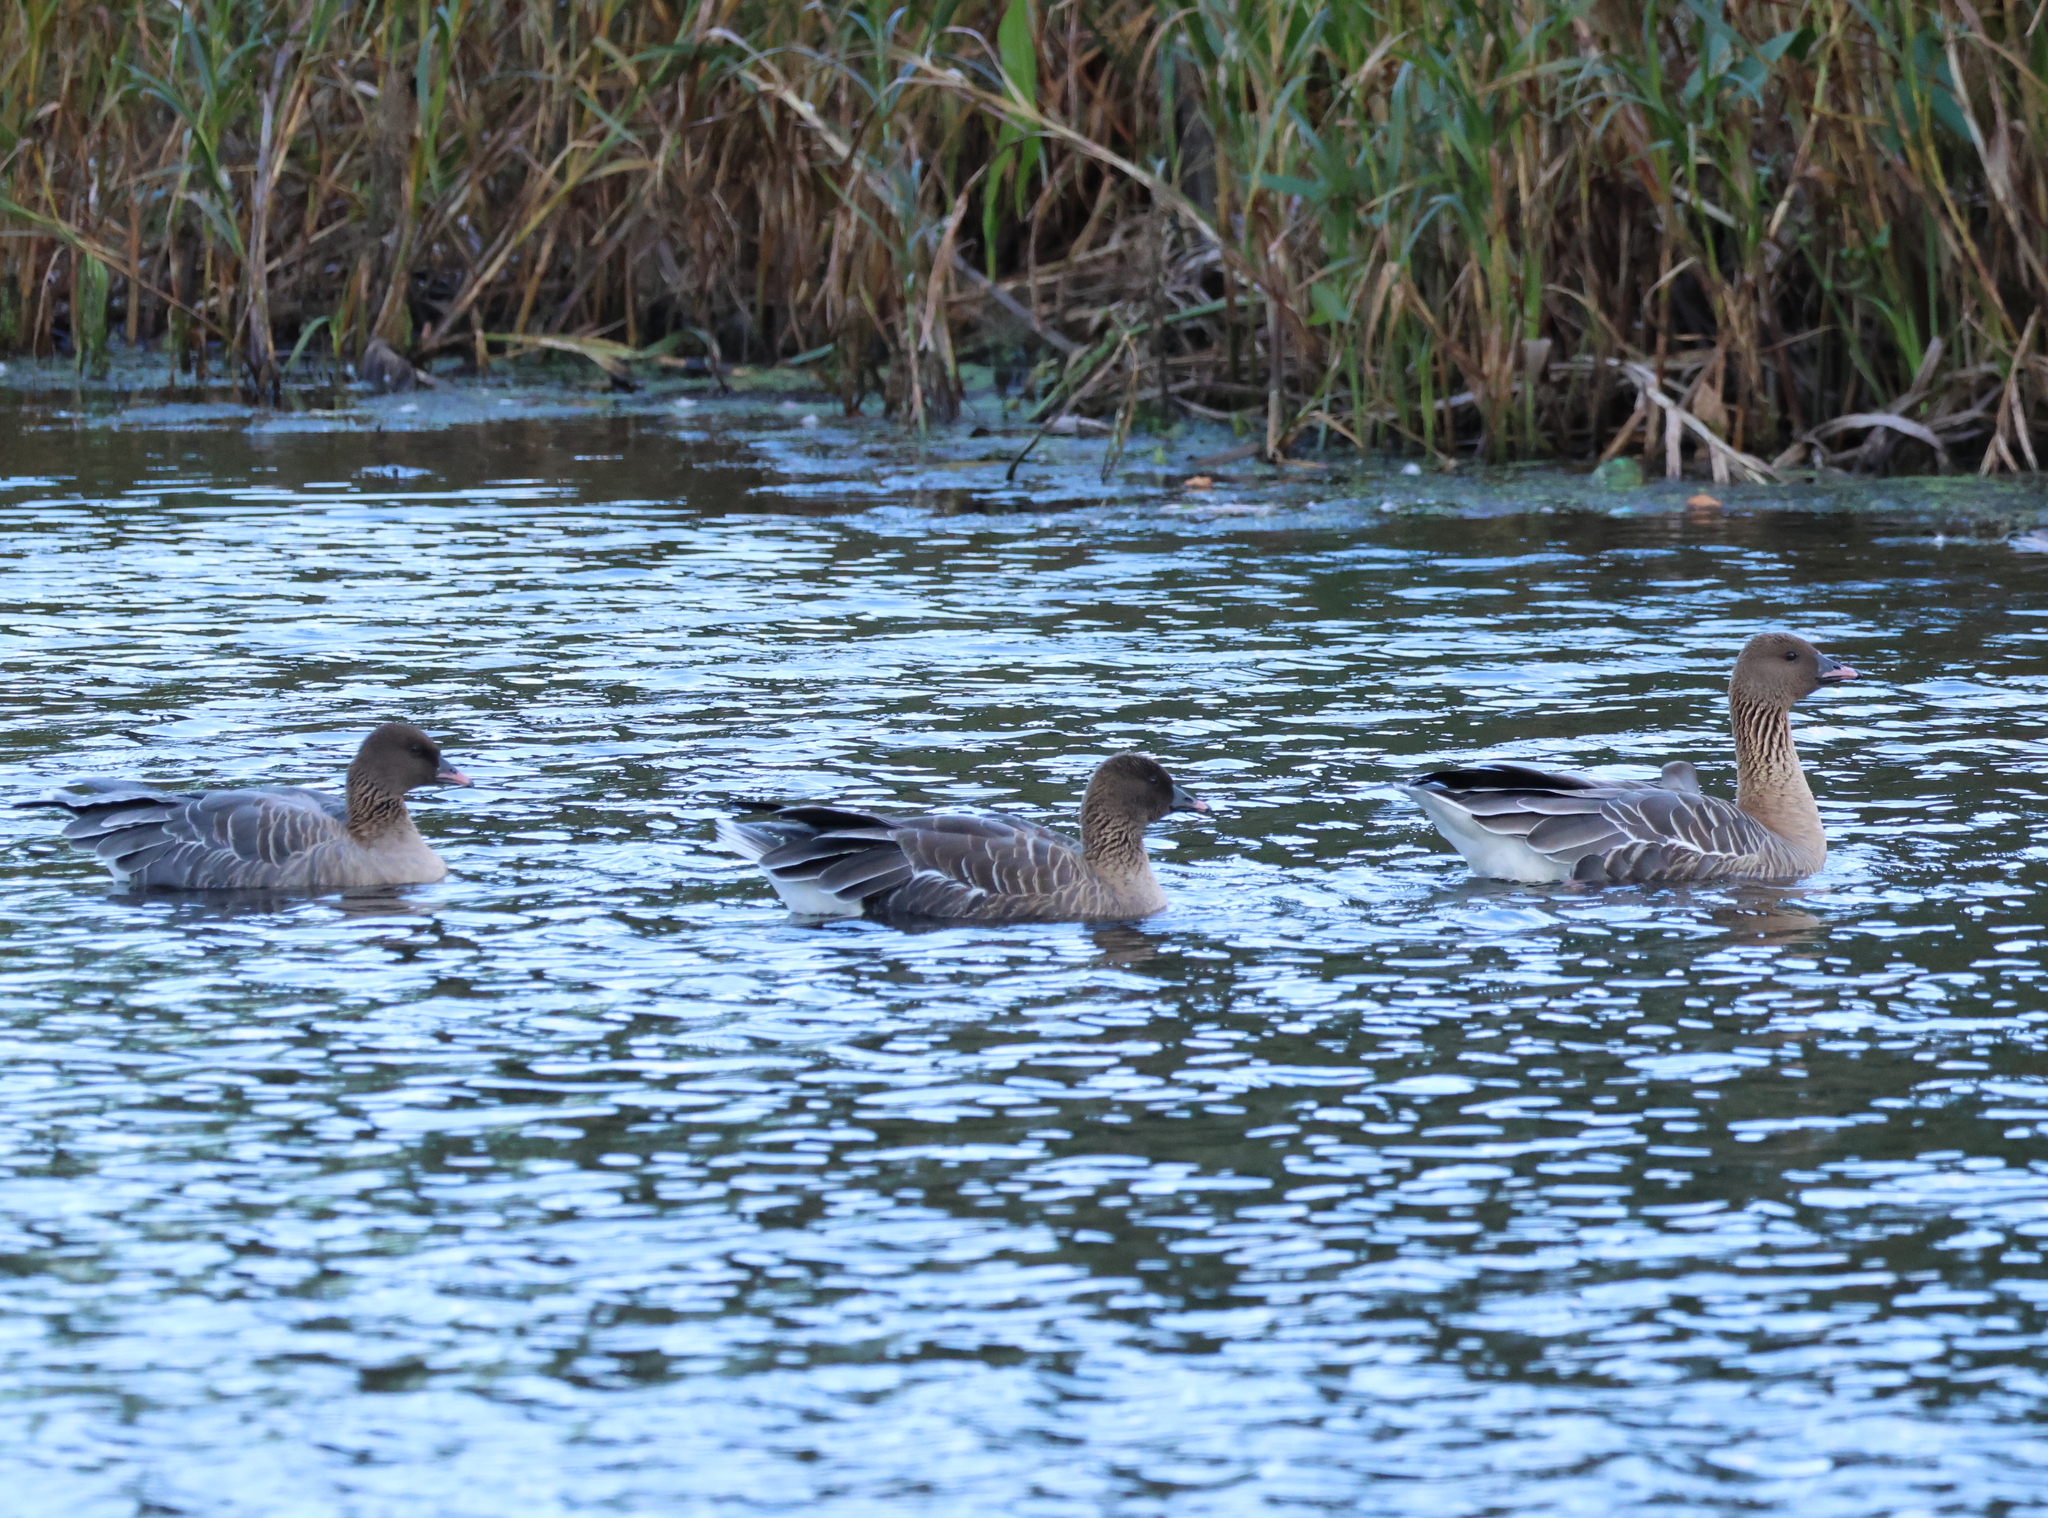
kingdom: Animalia
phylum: Chordata
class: Aves
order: Anseriformes
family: Anatidae
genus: Anser
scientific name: Anser brachyrhynchus
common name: Pink-footed goose
